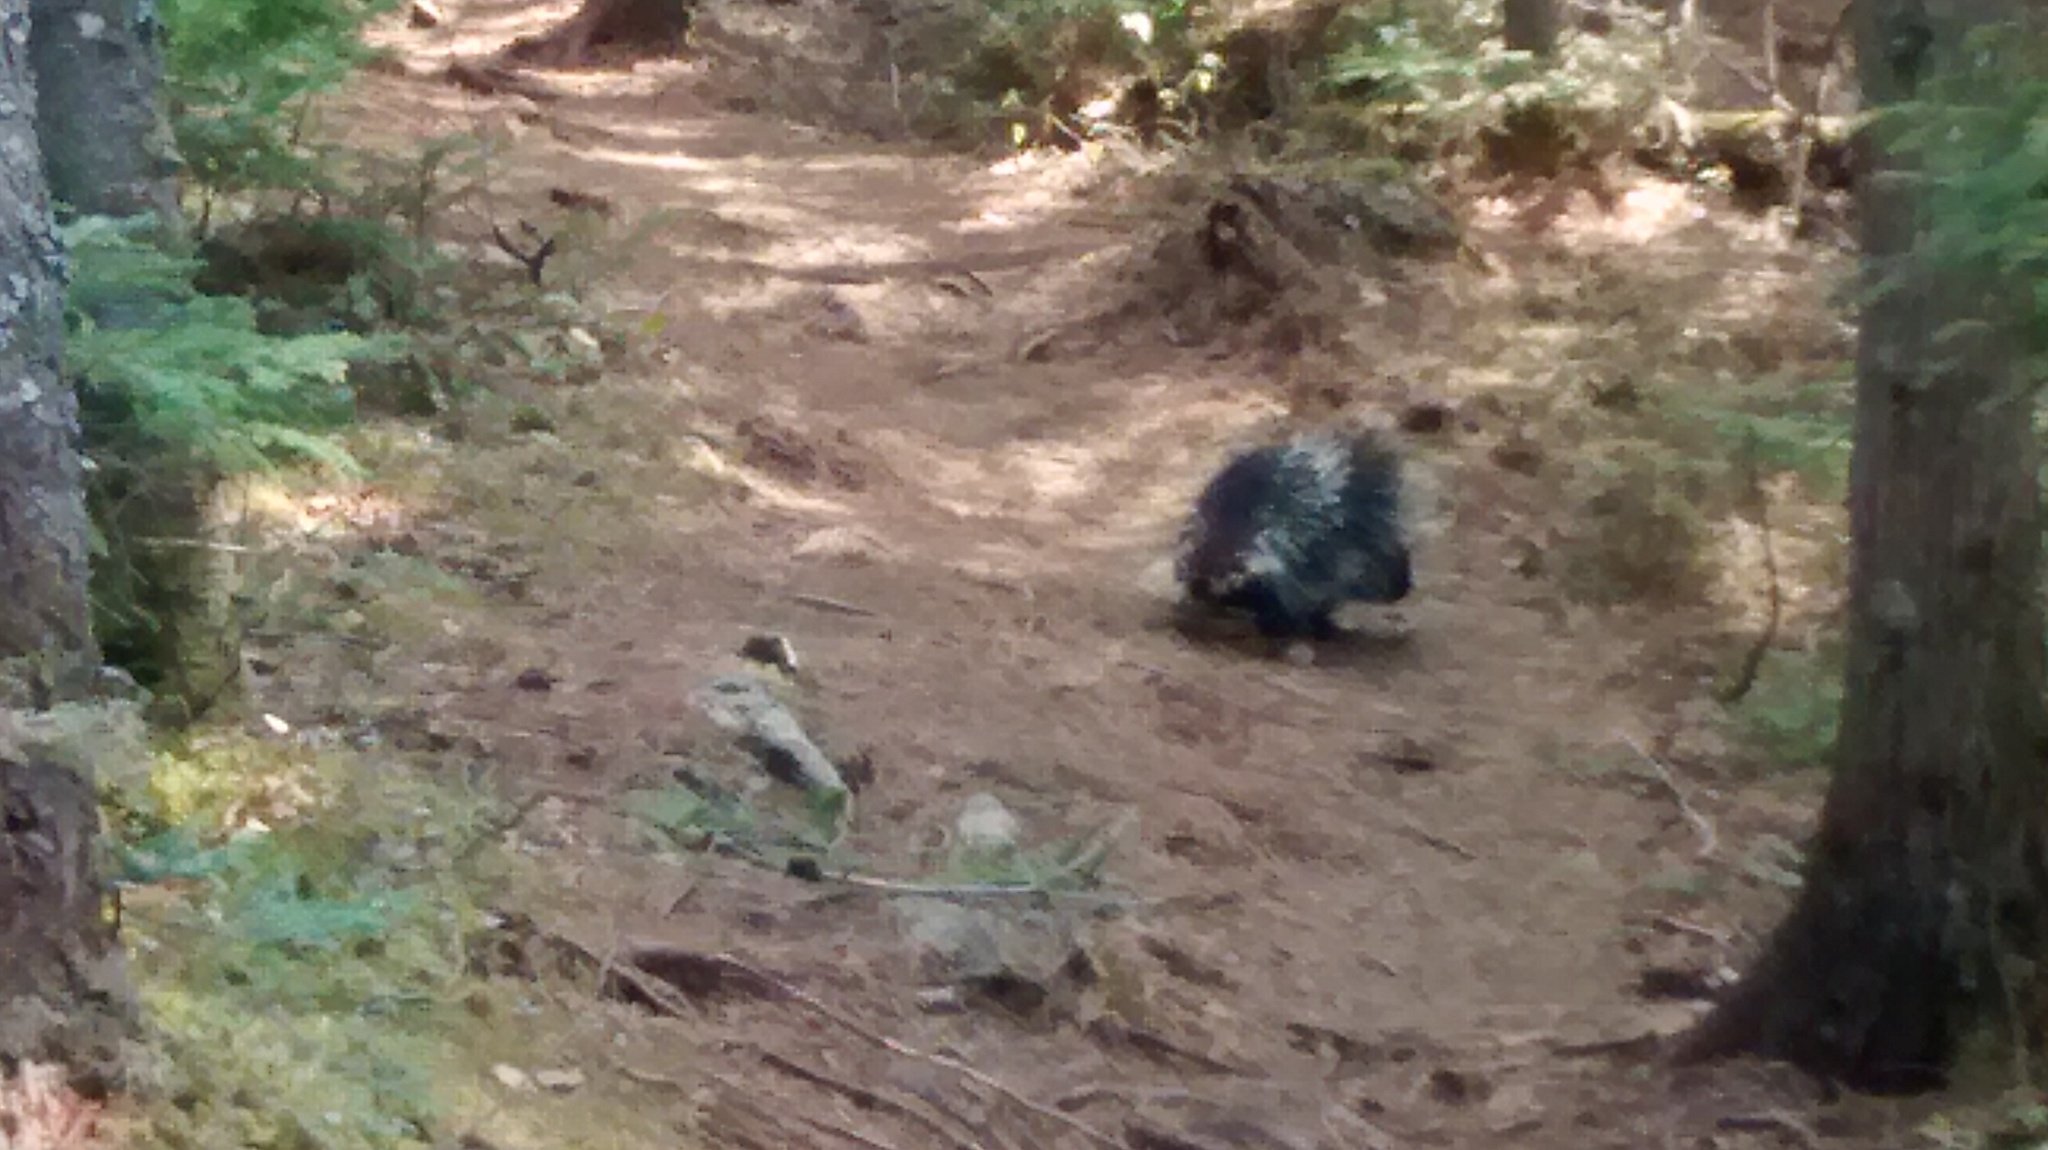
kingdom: Animalia
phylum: Chordata
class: Mammalia
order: Rodentia
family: Erethizontidae
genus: Erethizon
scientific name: Erethizon dorsatus
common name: North american porcupine
